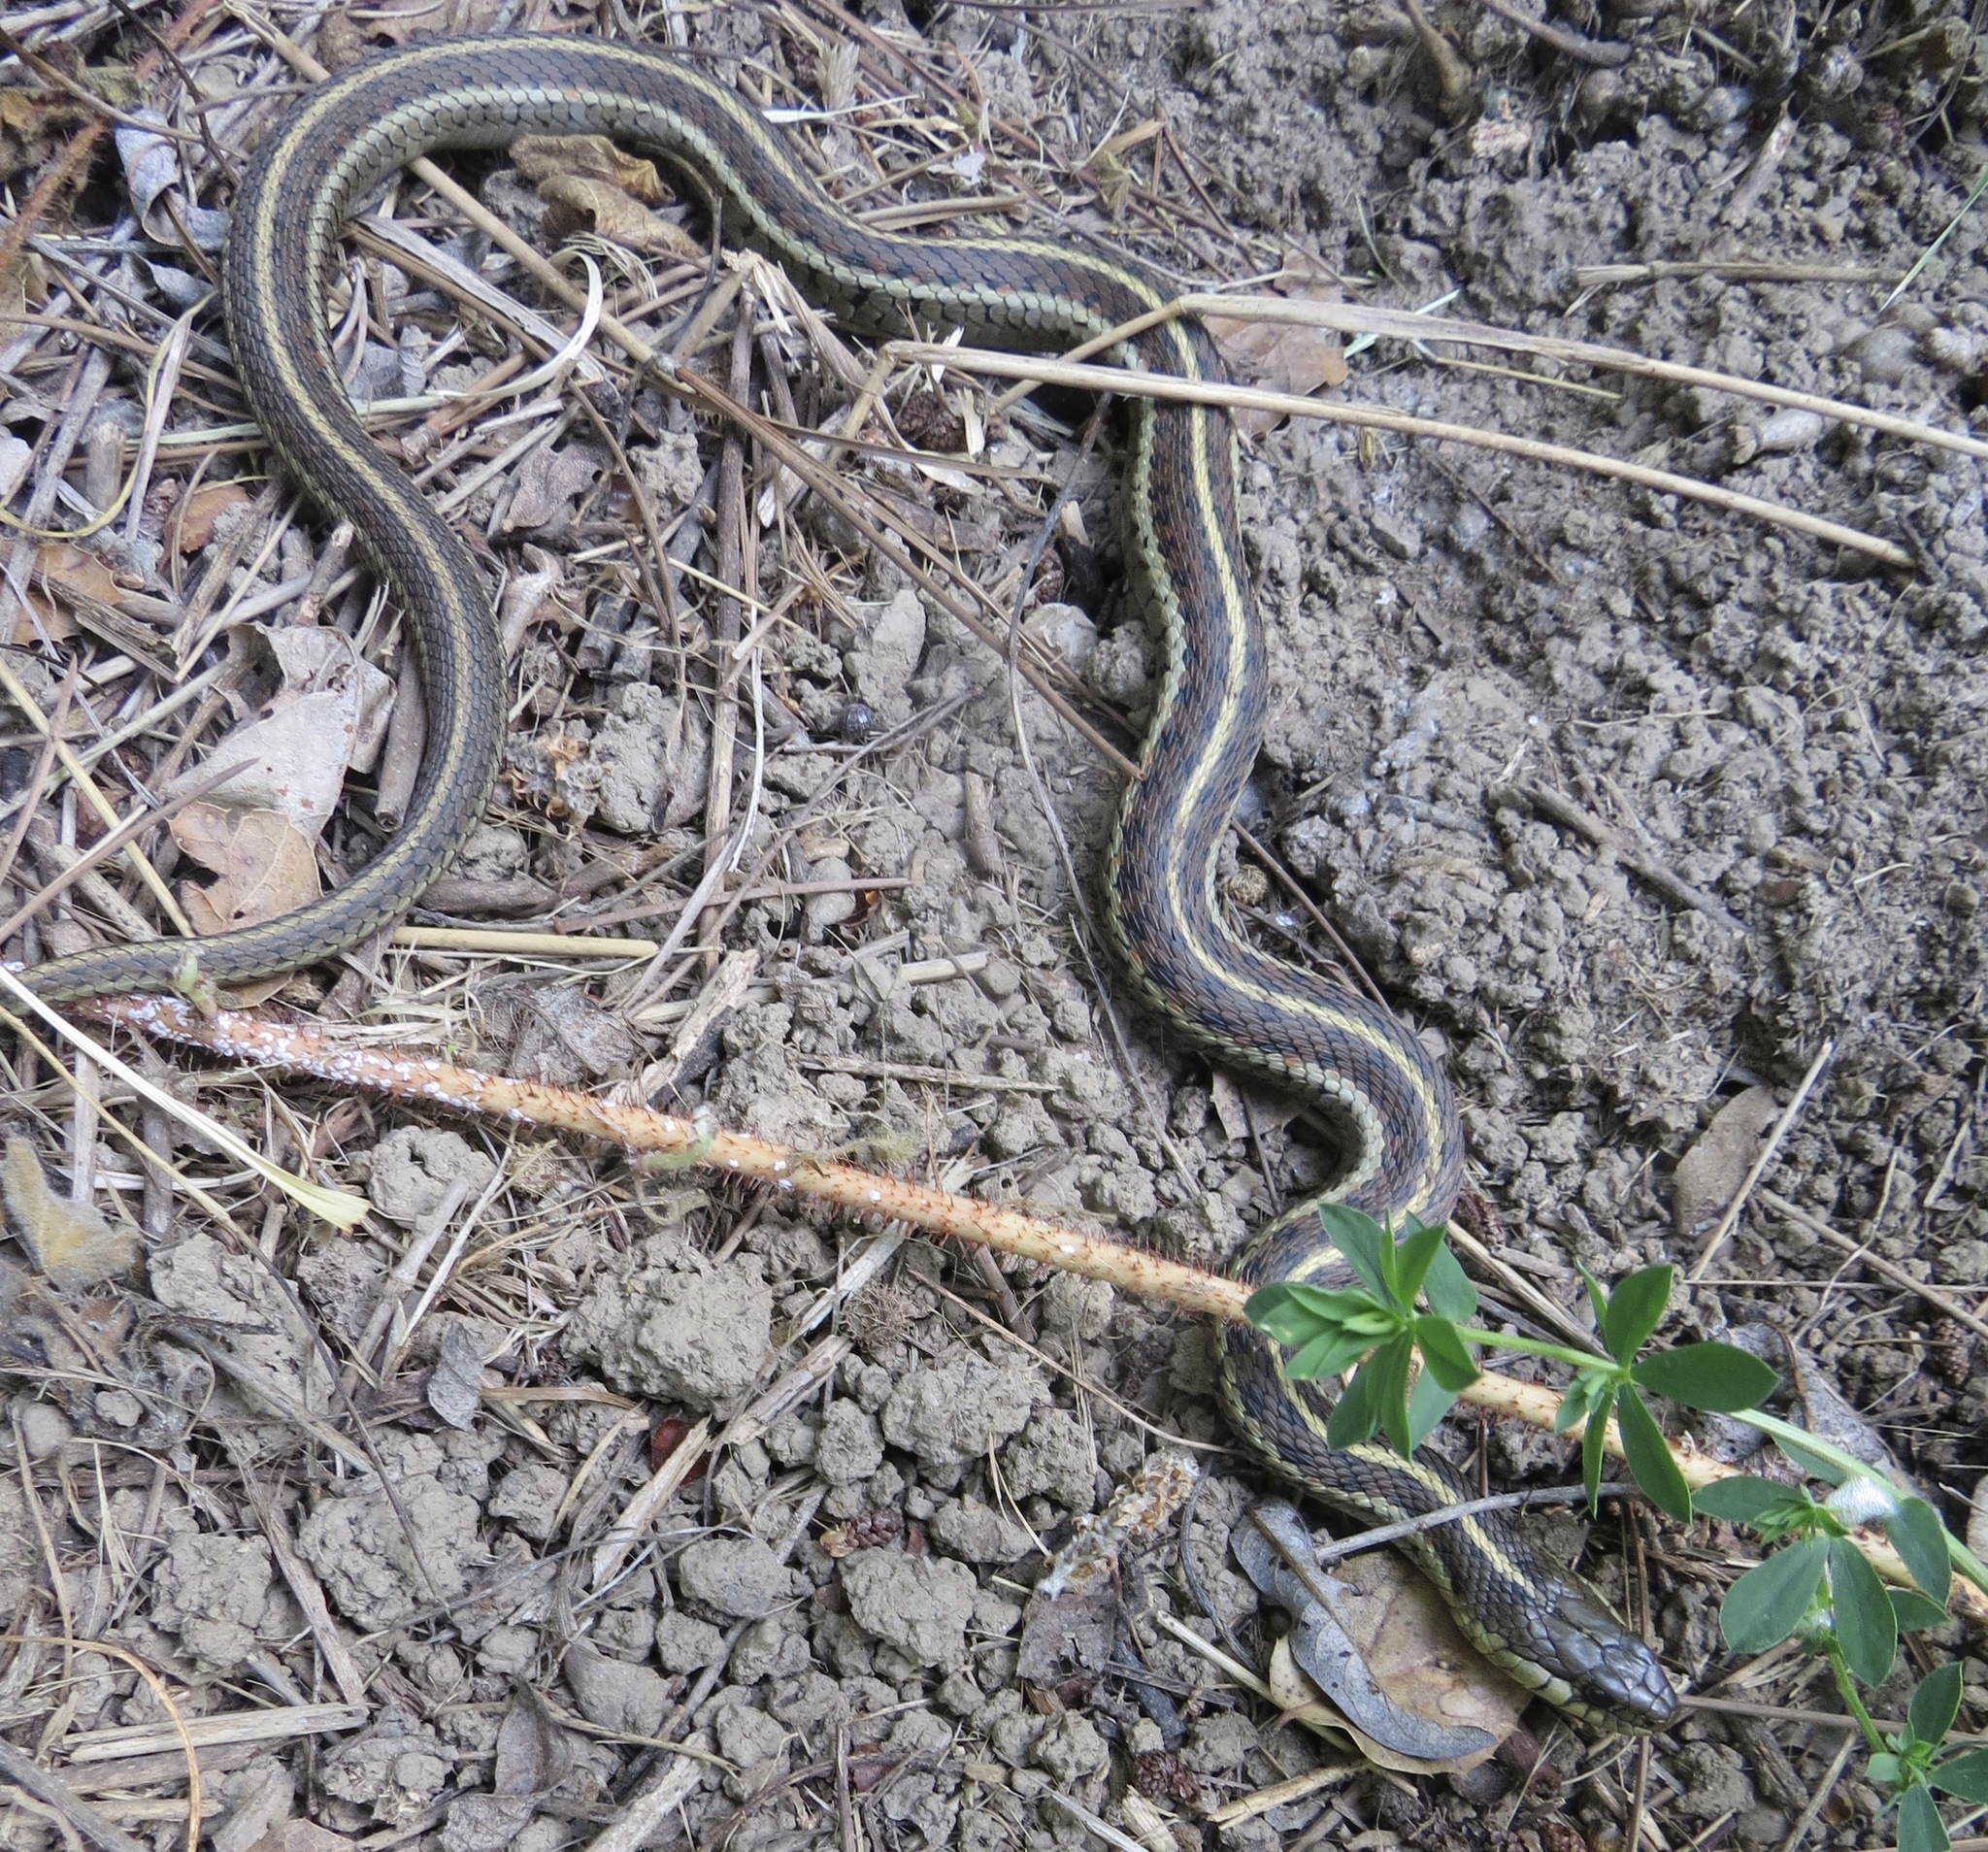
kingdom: Animalia
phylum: Chordata
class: Squamata
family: Colubridae
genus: Thamnophis
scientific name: Thamnophis elegans
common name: Western terrestrial garter snake
